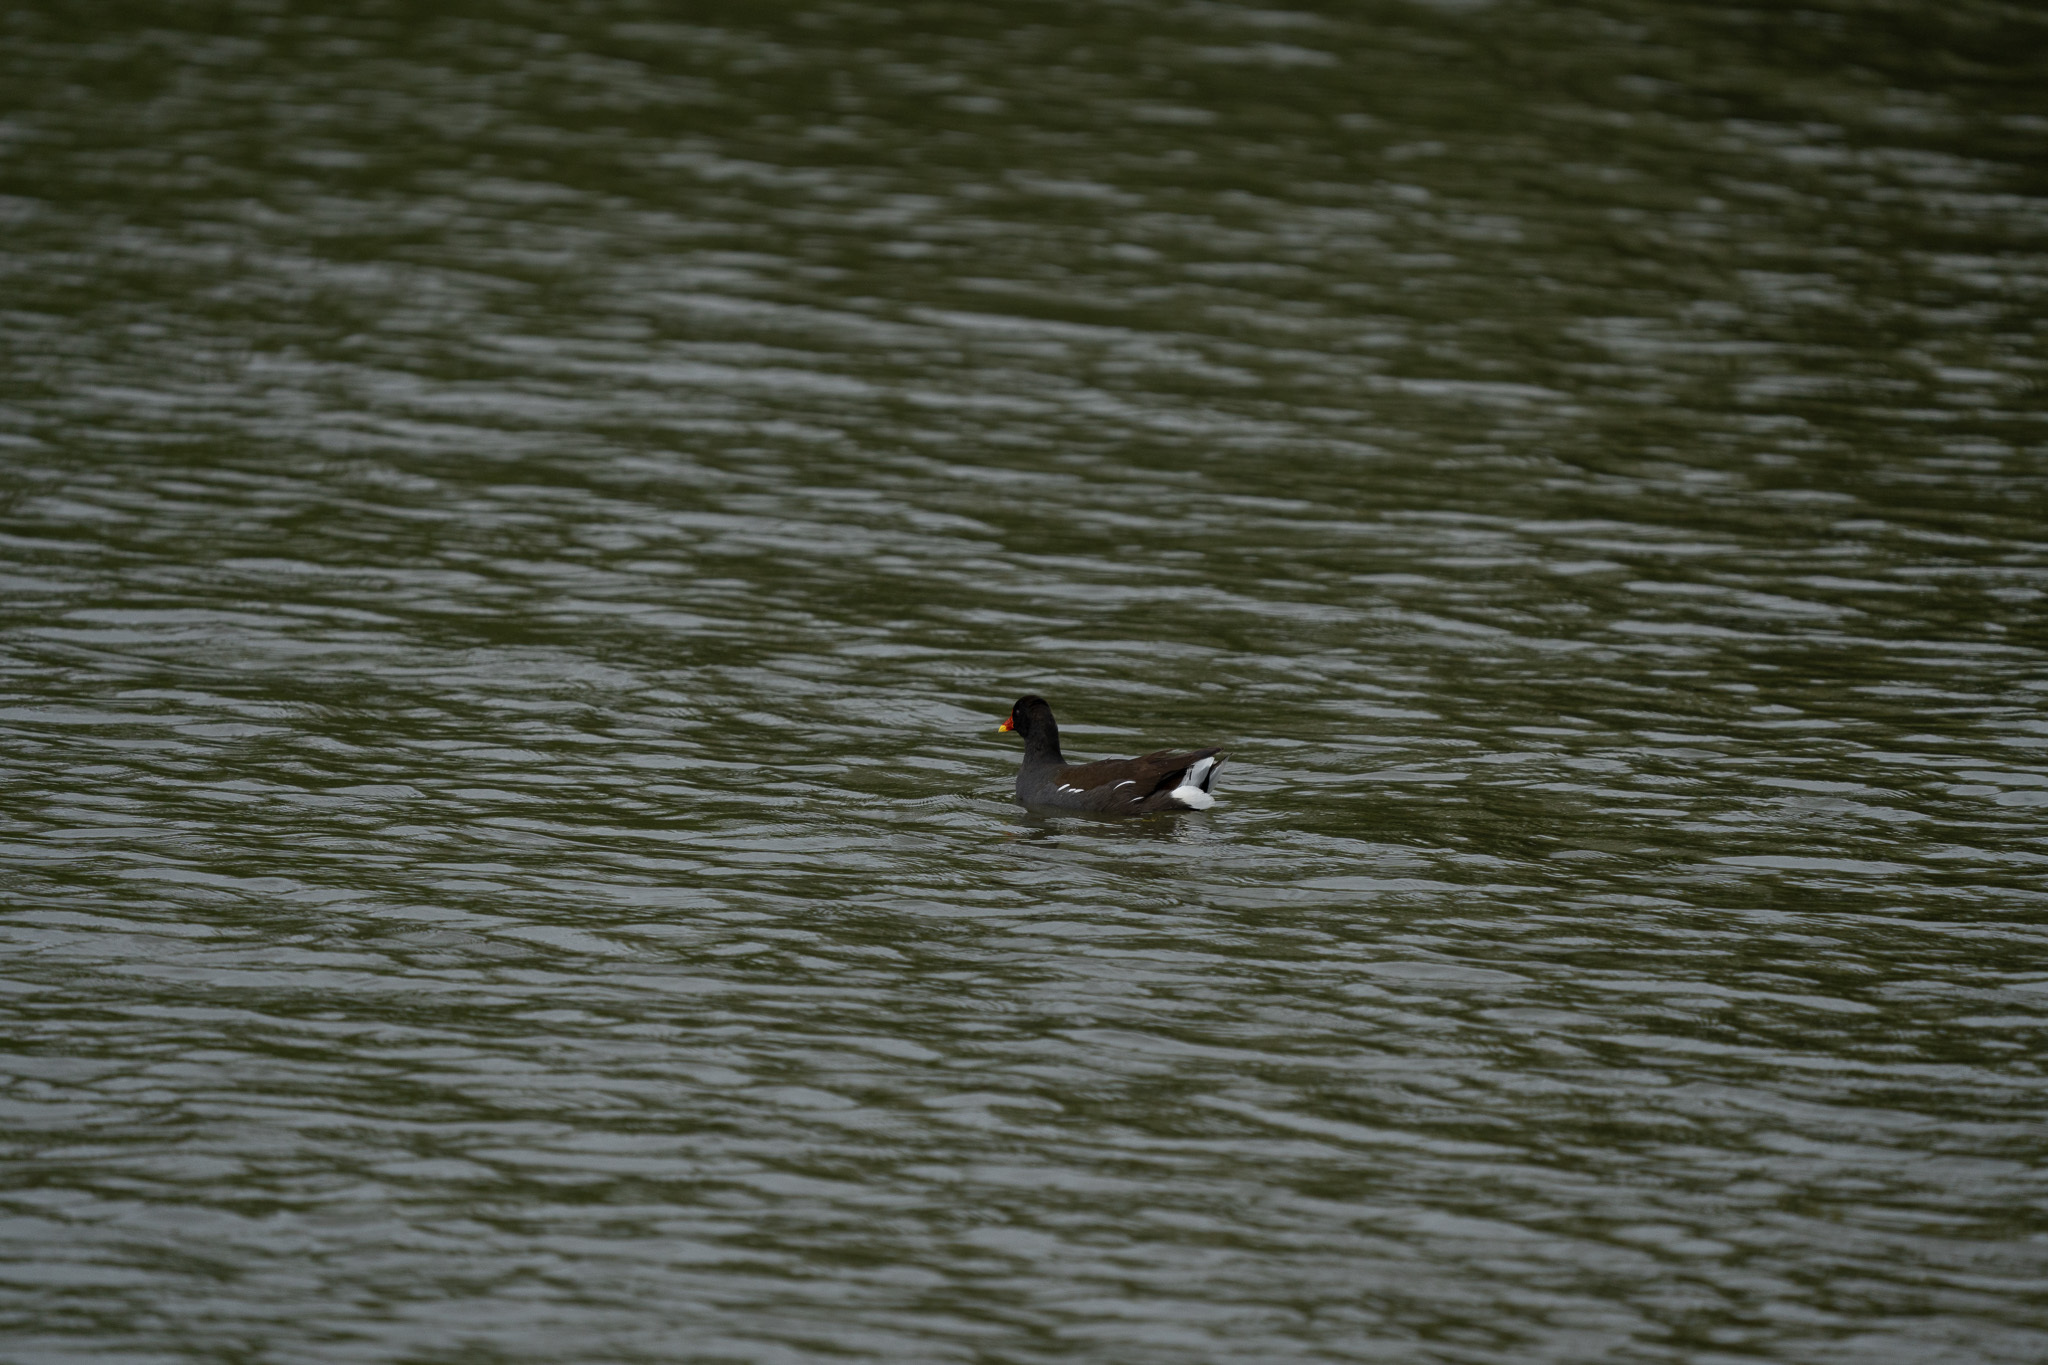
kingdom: Animalia
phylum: Chordata
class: Aves
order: Gruiformes
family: Rallidae
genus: Gallinula
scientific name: Gallinula chloropus
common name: Common moorhen
